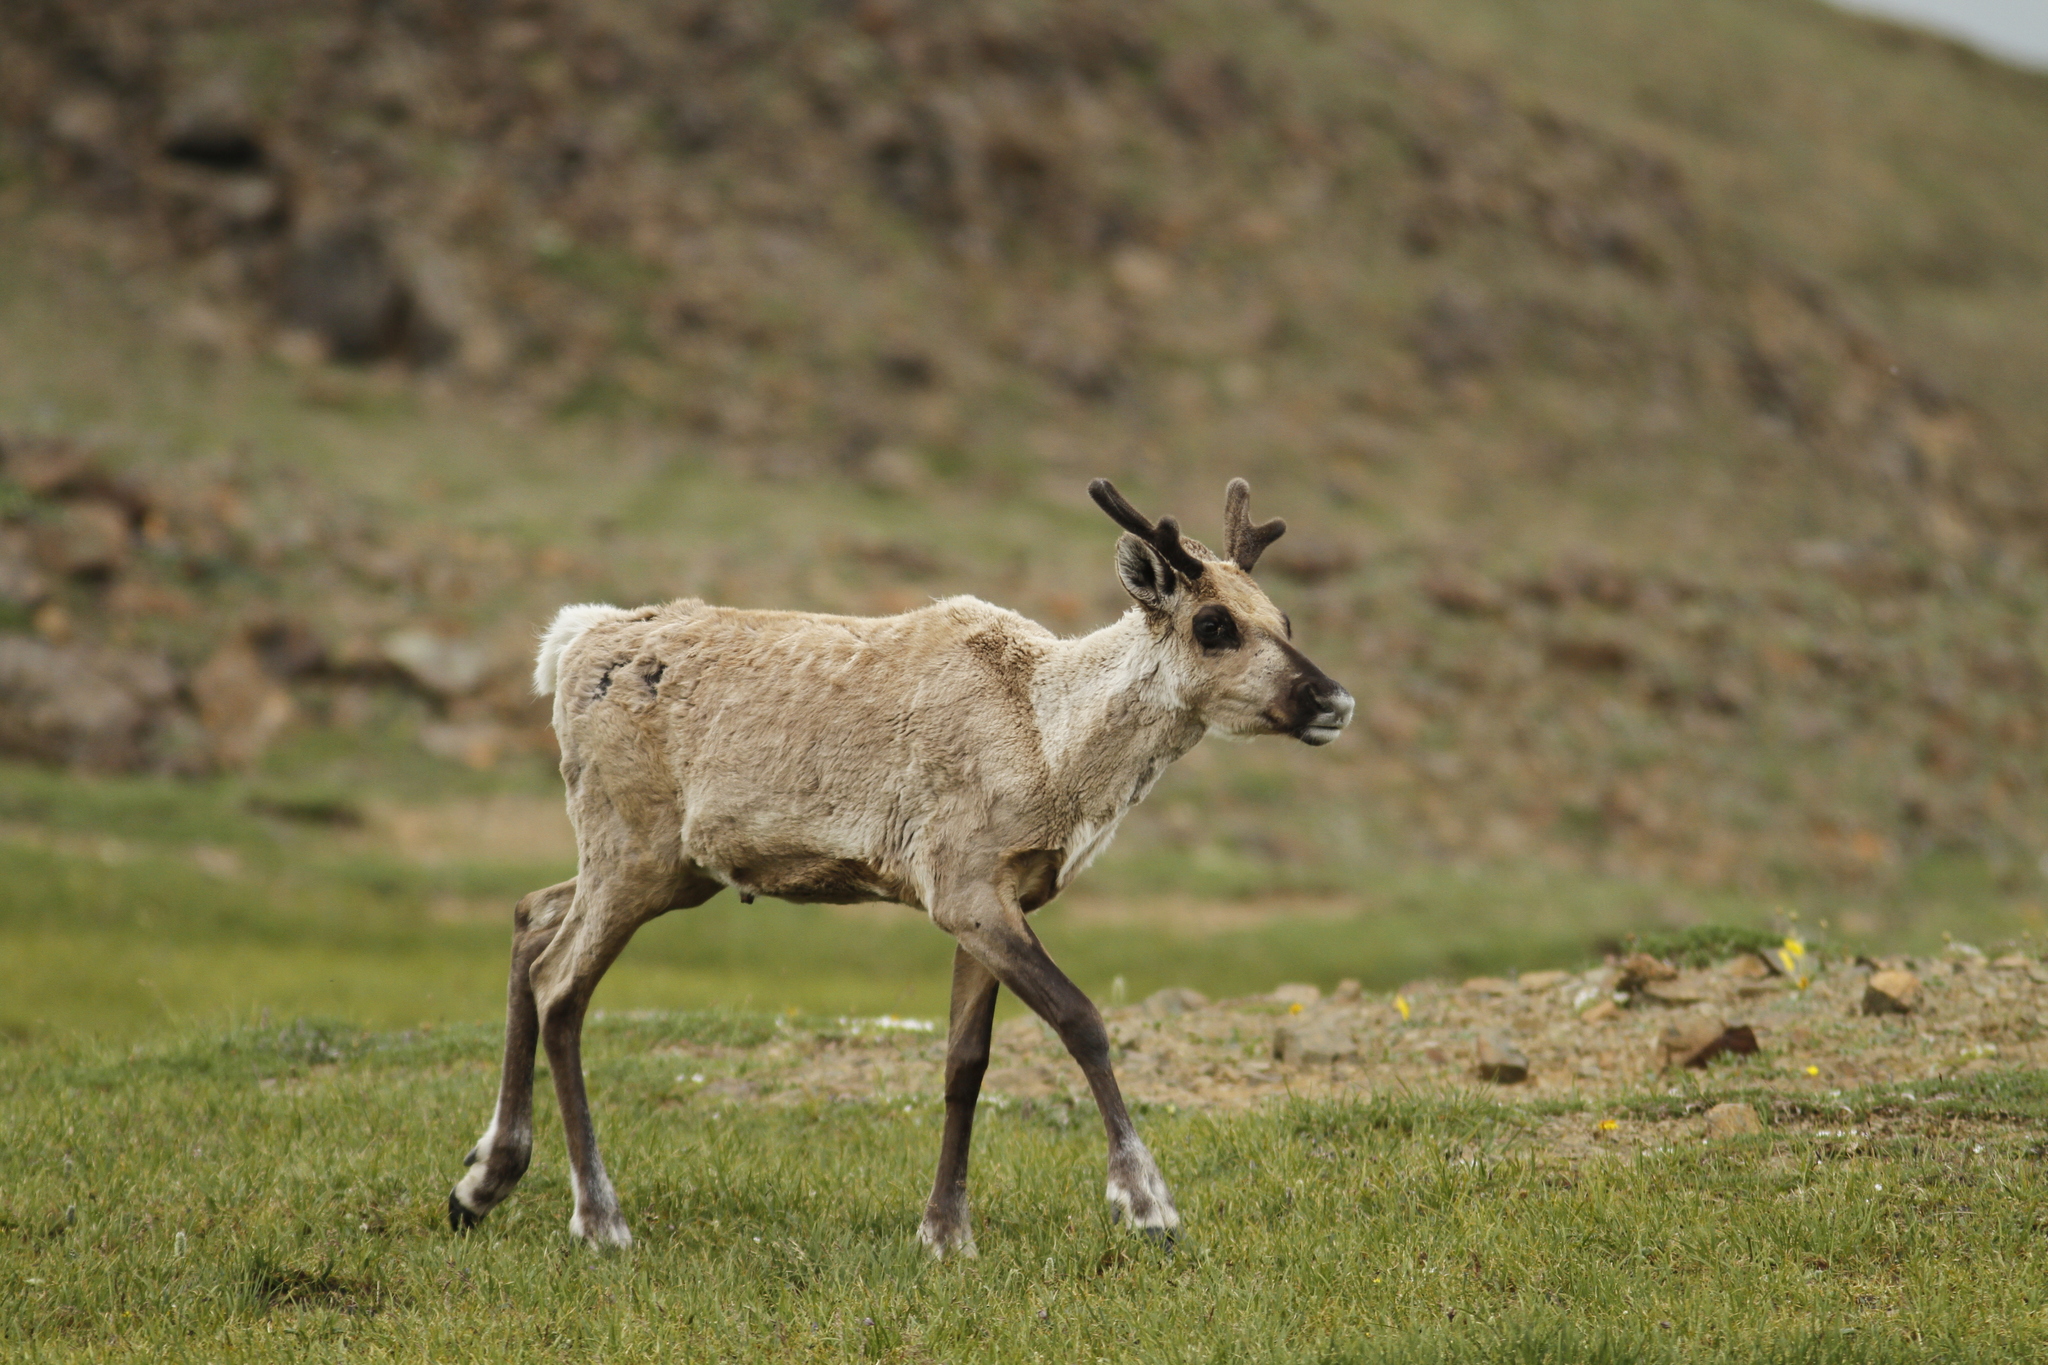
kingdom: Animalia
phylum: Chordata
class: Mammalia
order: Artiodactyla
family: Cervidae
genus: Rangifer
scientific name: Rangifer tarandus
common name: Reindeer
